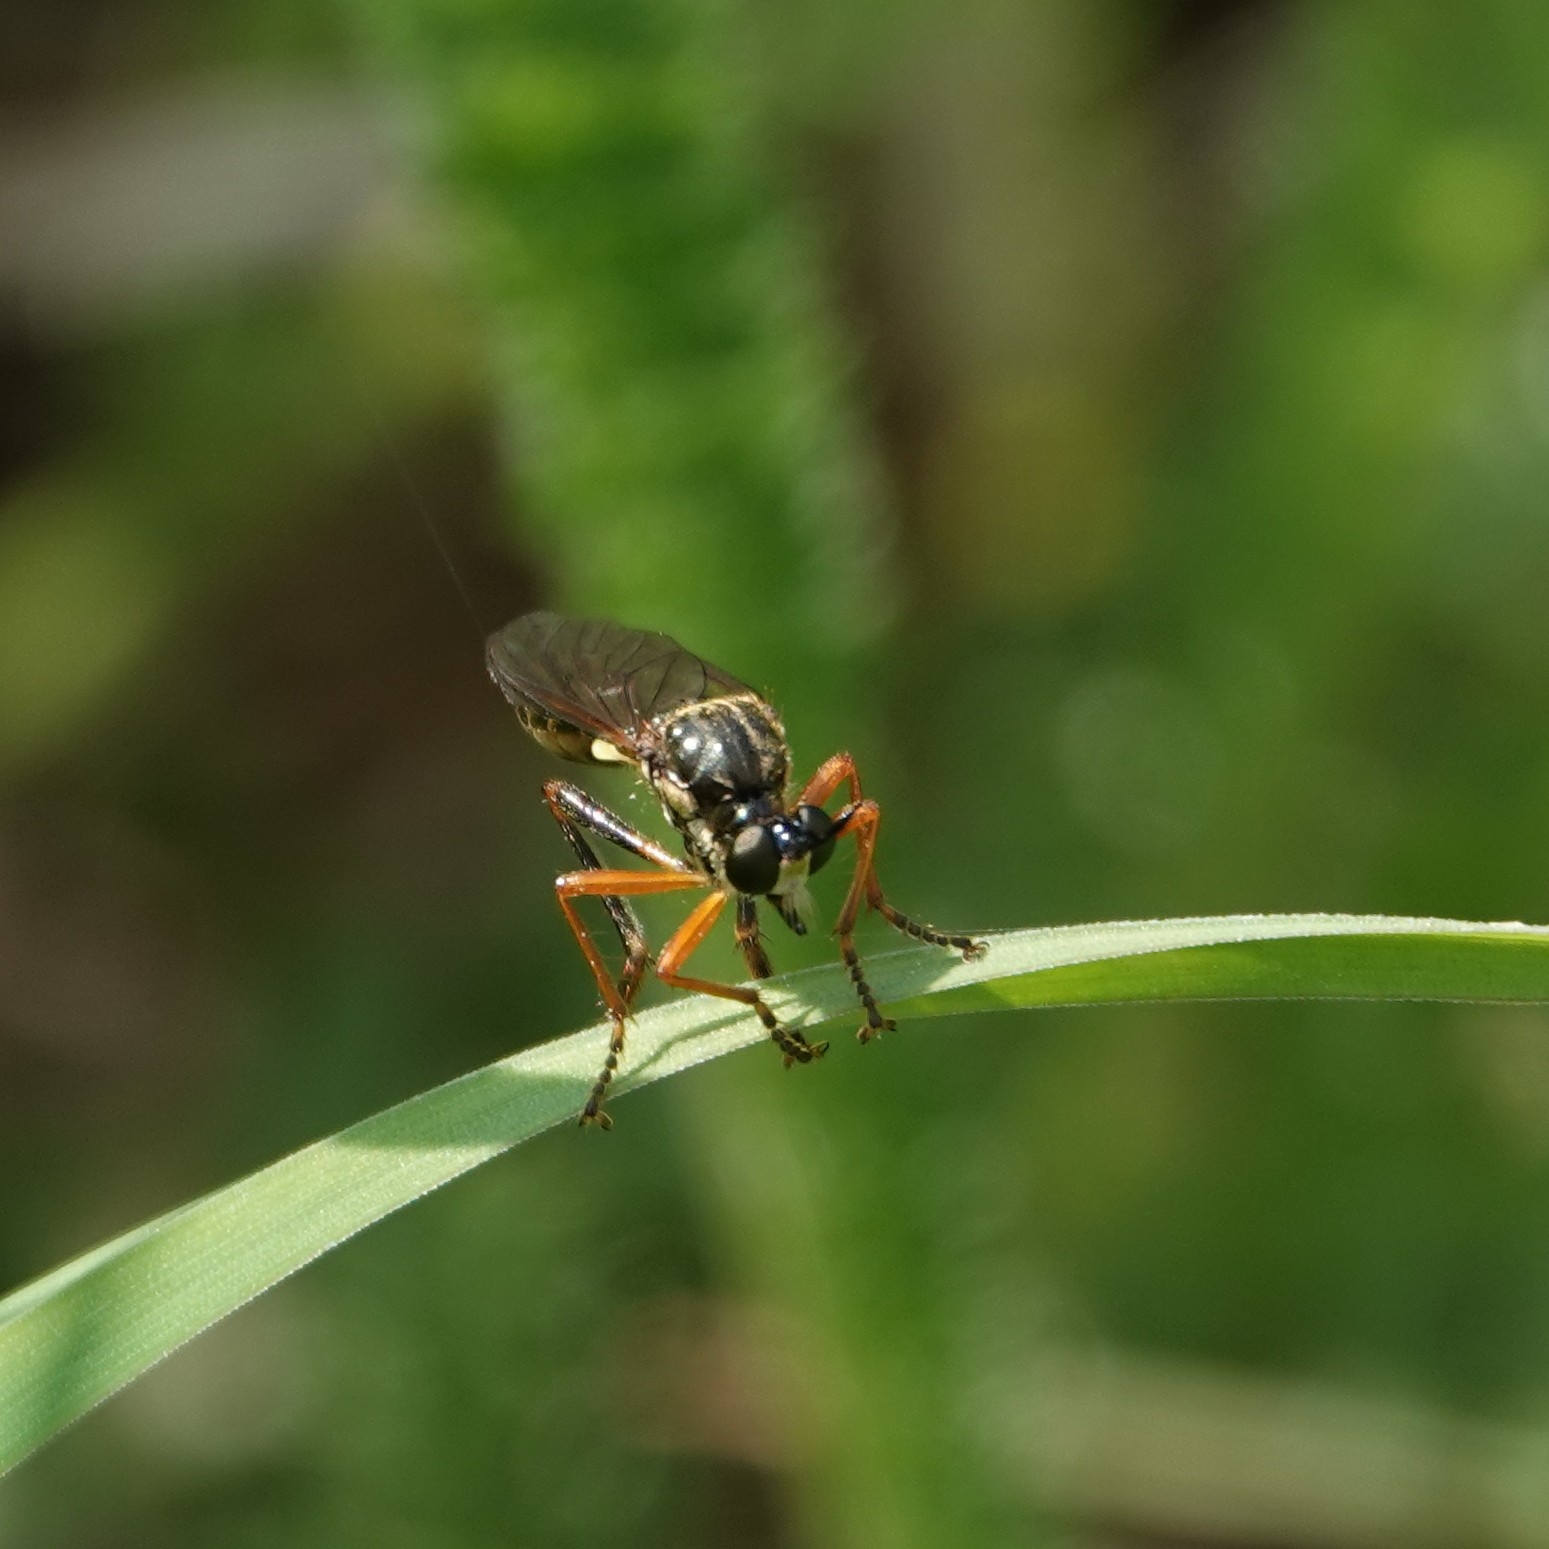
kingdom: Animalia
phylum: Arthropoda
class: Insecta
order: Diptera
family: Asilidae
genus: Dioctria
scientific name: Dioctria rufipes
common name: Common red-legged robberfly
